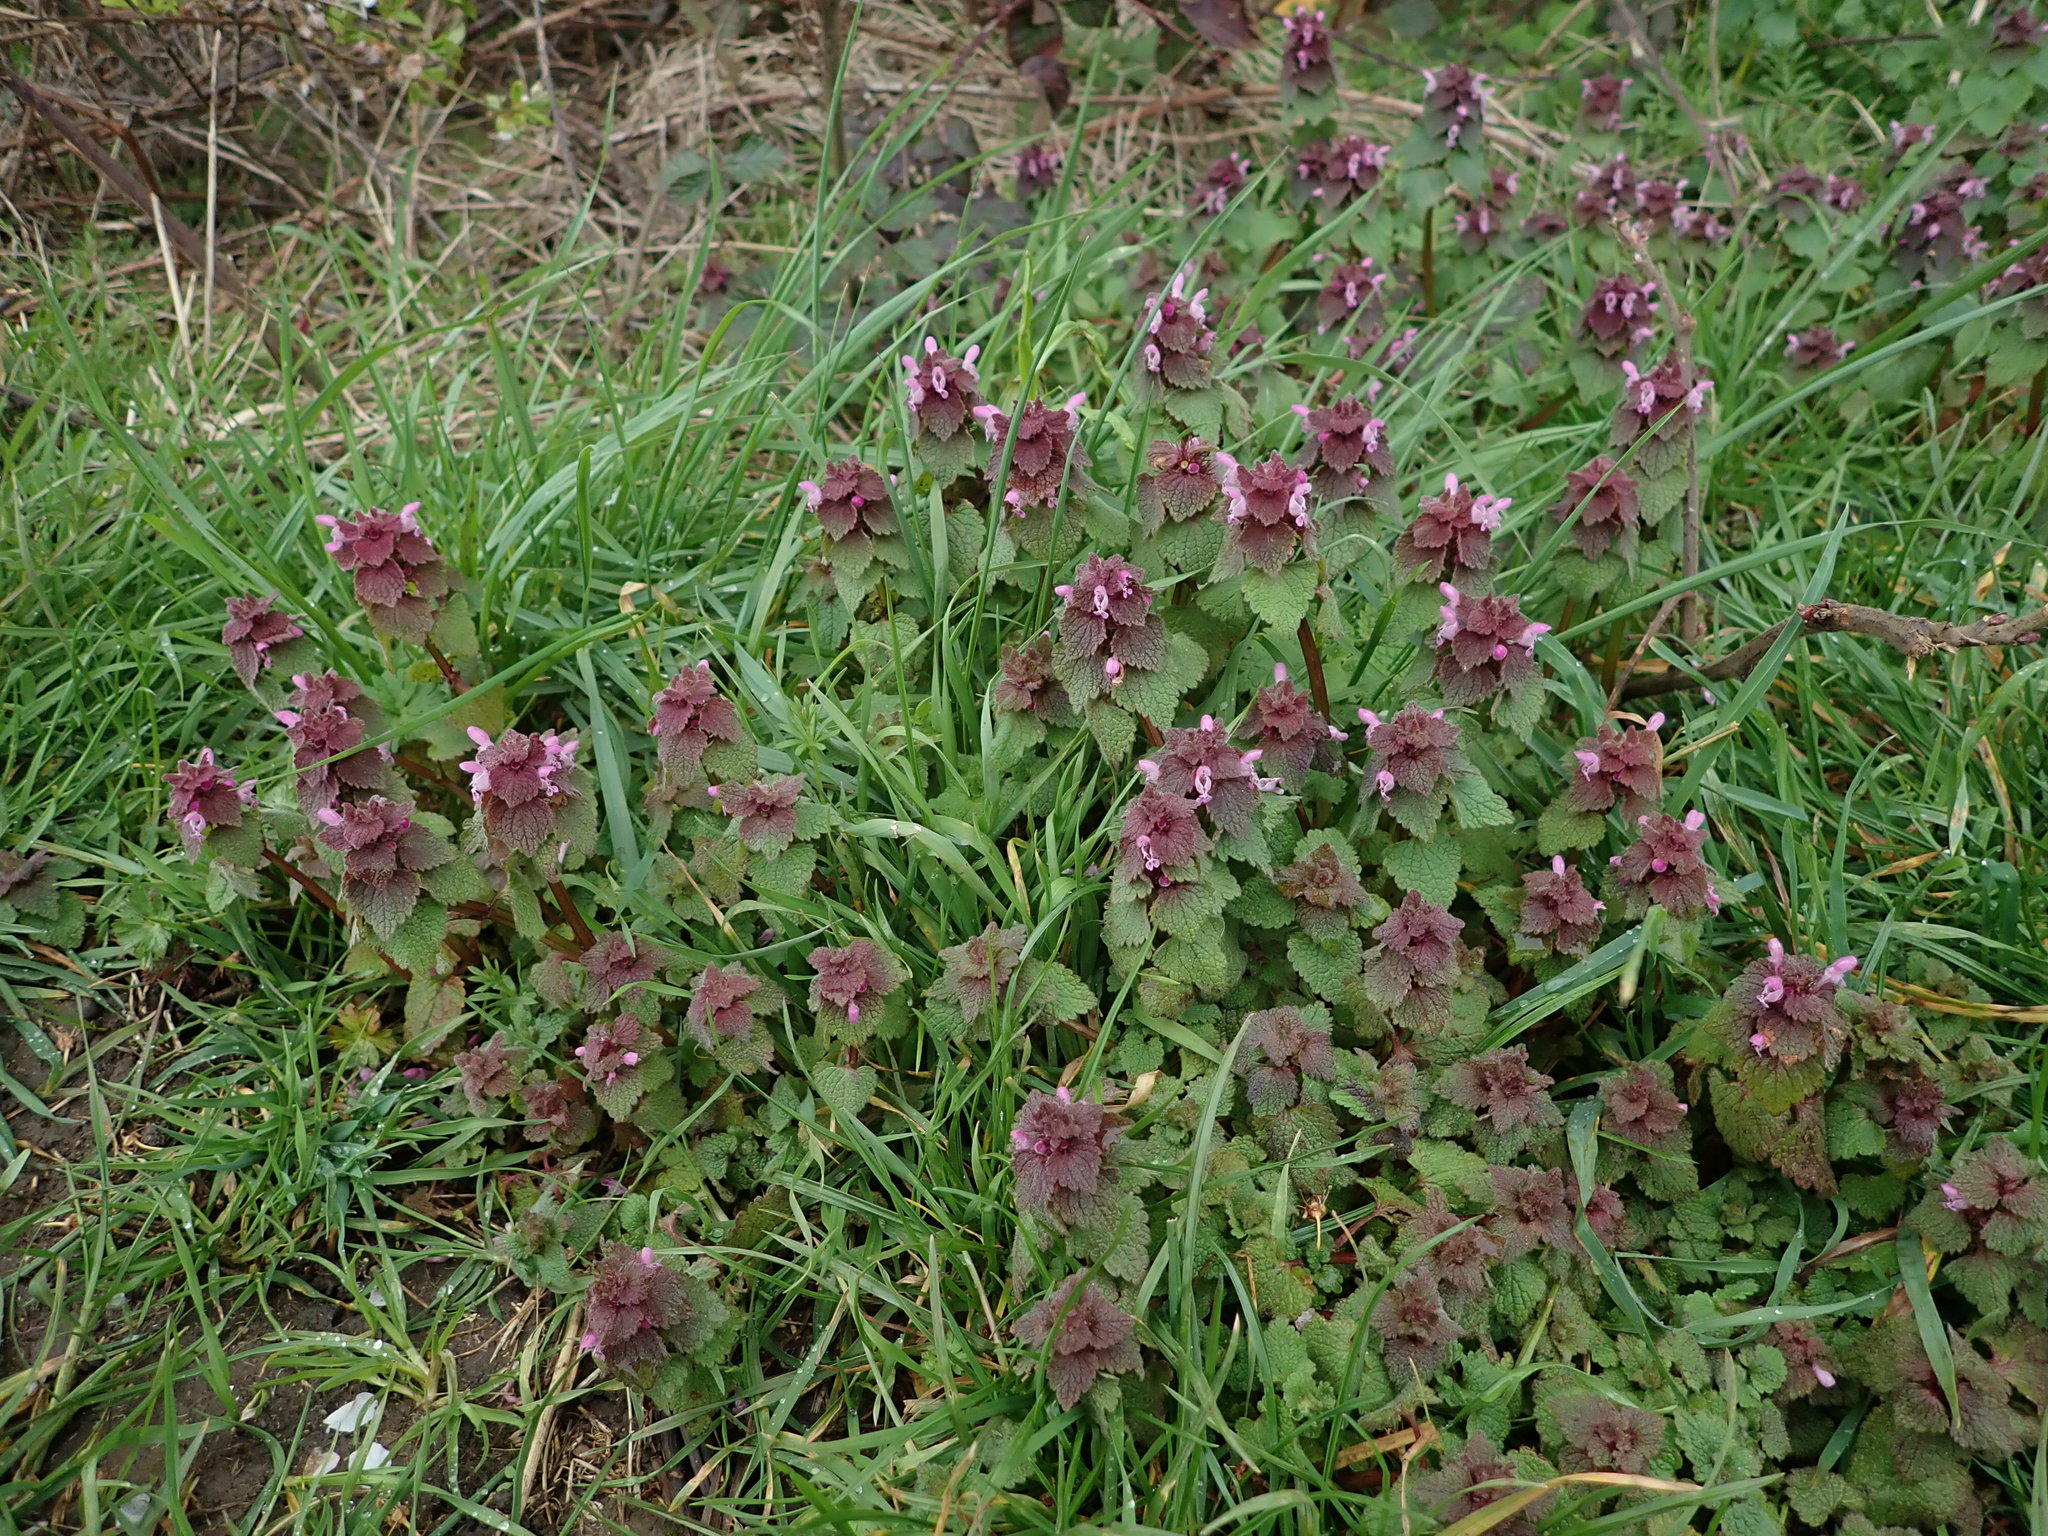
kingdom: Plantae
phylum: Tracheophyta
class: Magnoliopsida
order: Lamiales
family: Lamiaceae
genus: Lamium
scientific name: Lamium purpureum
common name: Red dead-nettle
